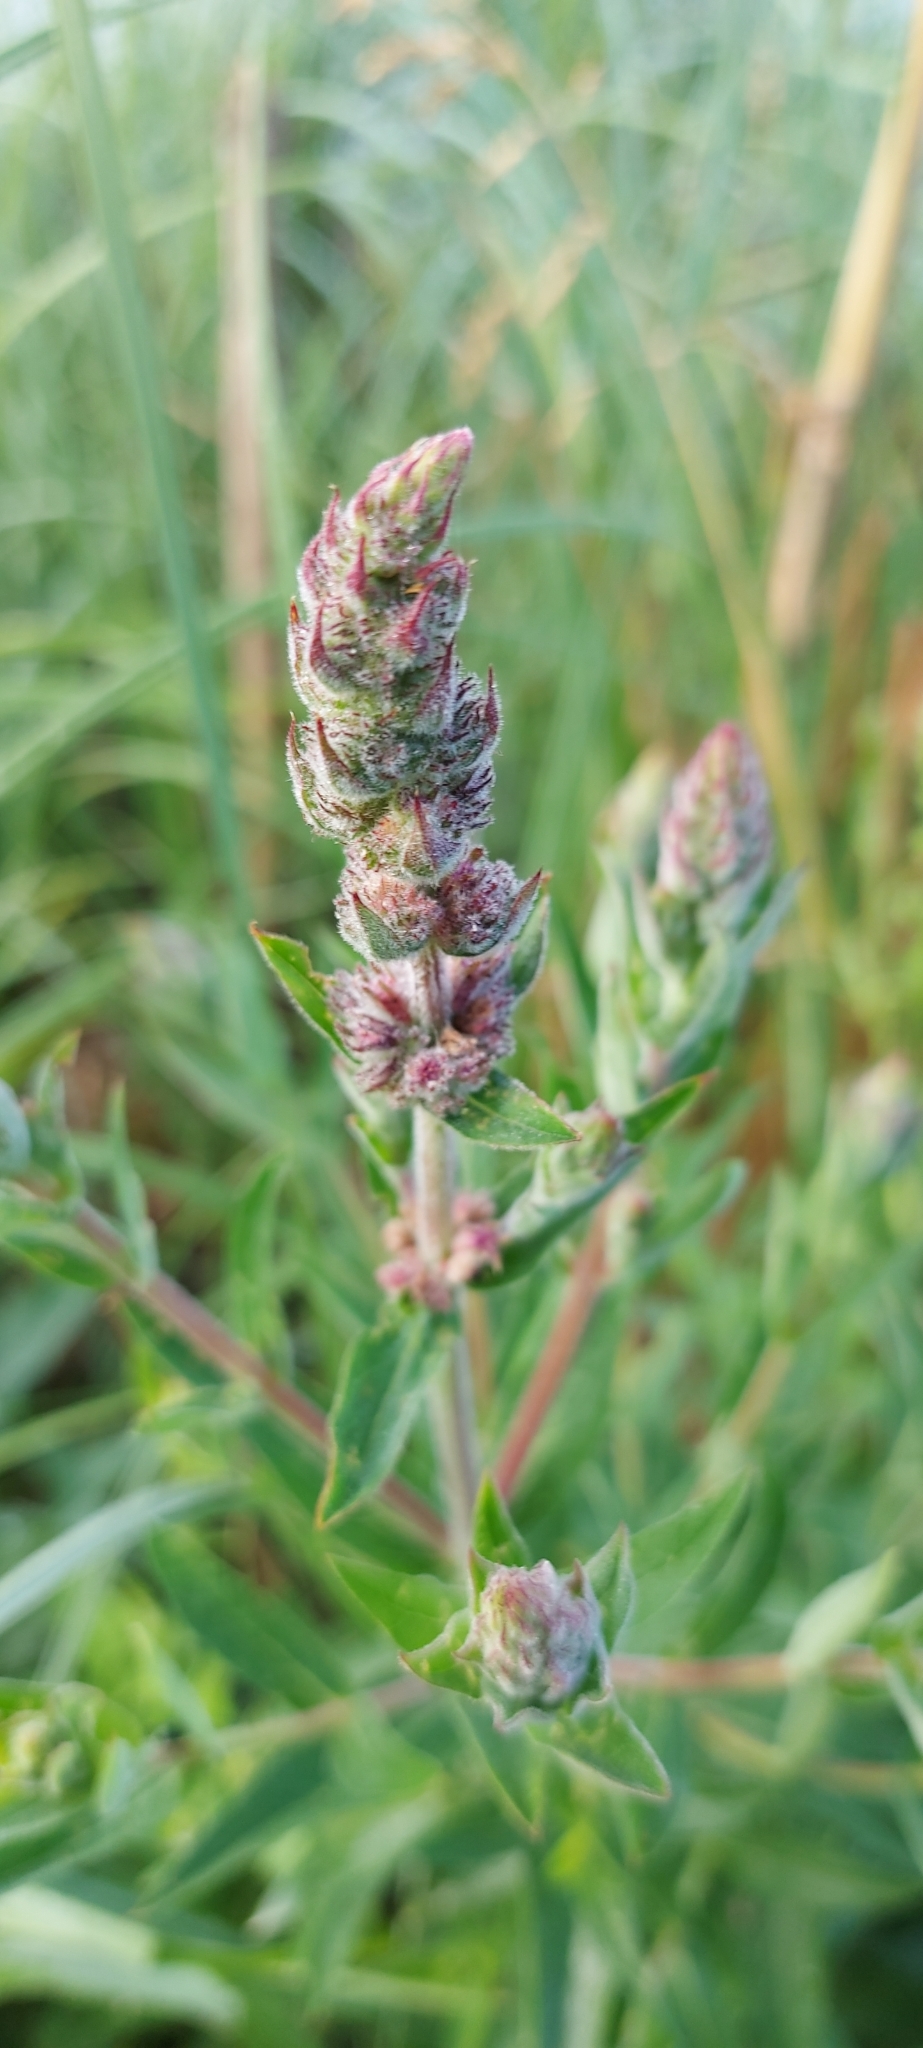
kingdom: Plantae
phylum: Tracheophyta
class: Magnoliopsida
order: Myrtales
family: Lythraceae
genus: Lythrum
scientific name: Lythrum salicaria
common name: Purple loosestrife
